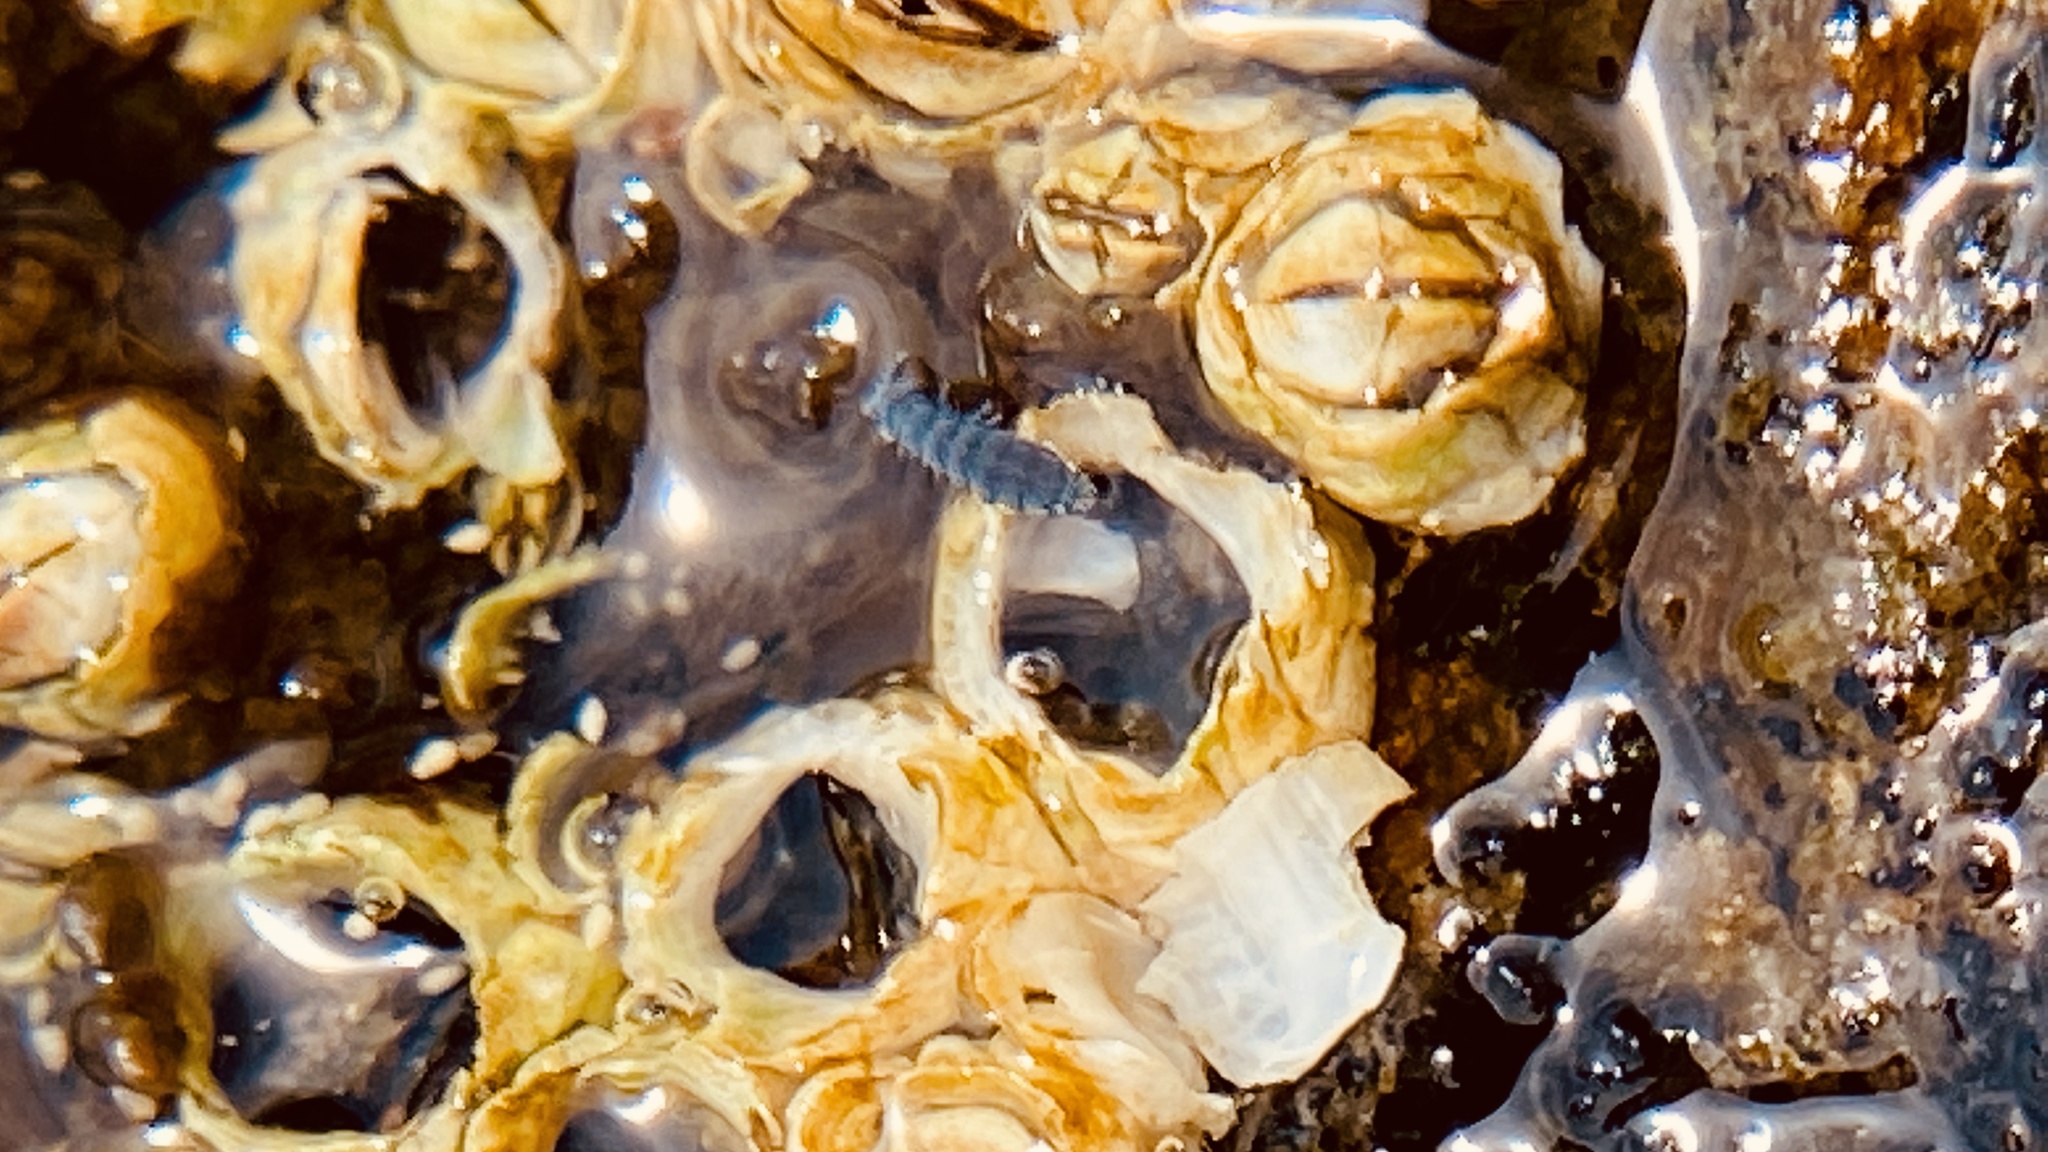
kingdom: Animalia
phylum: Arthropoda
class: Collembola
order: Poduromorpha
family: Neanuridae
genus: Anurida
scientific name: Anurida maritima
